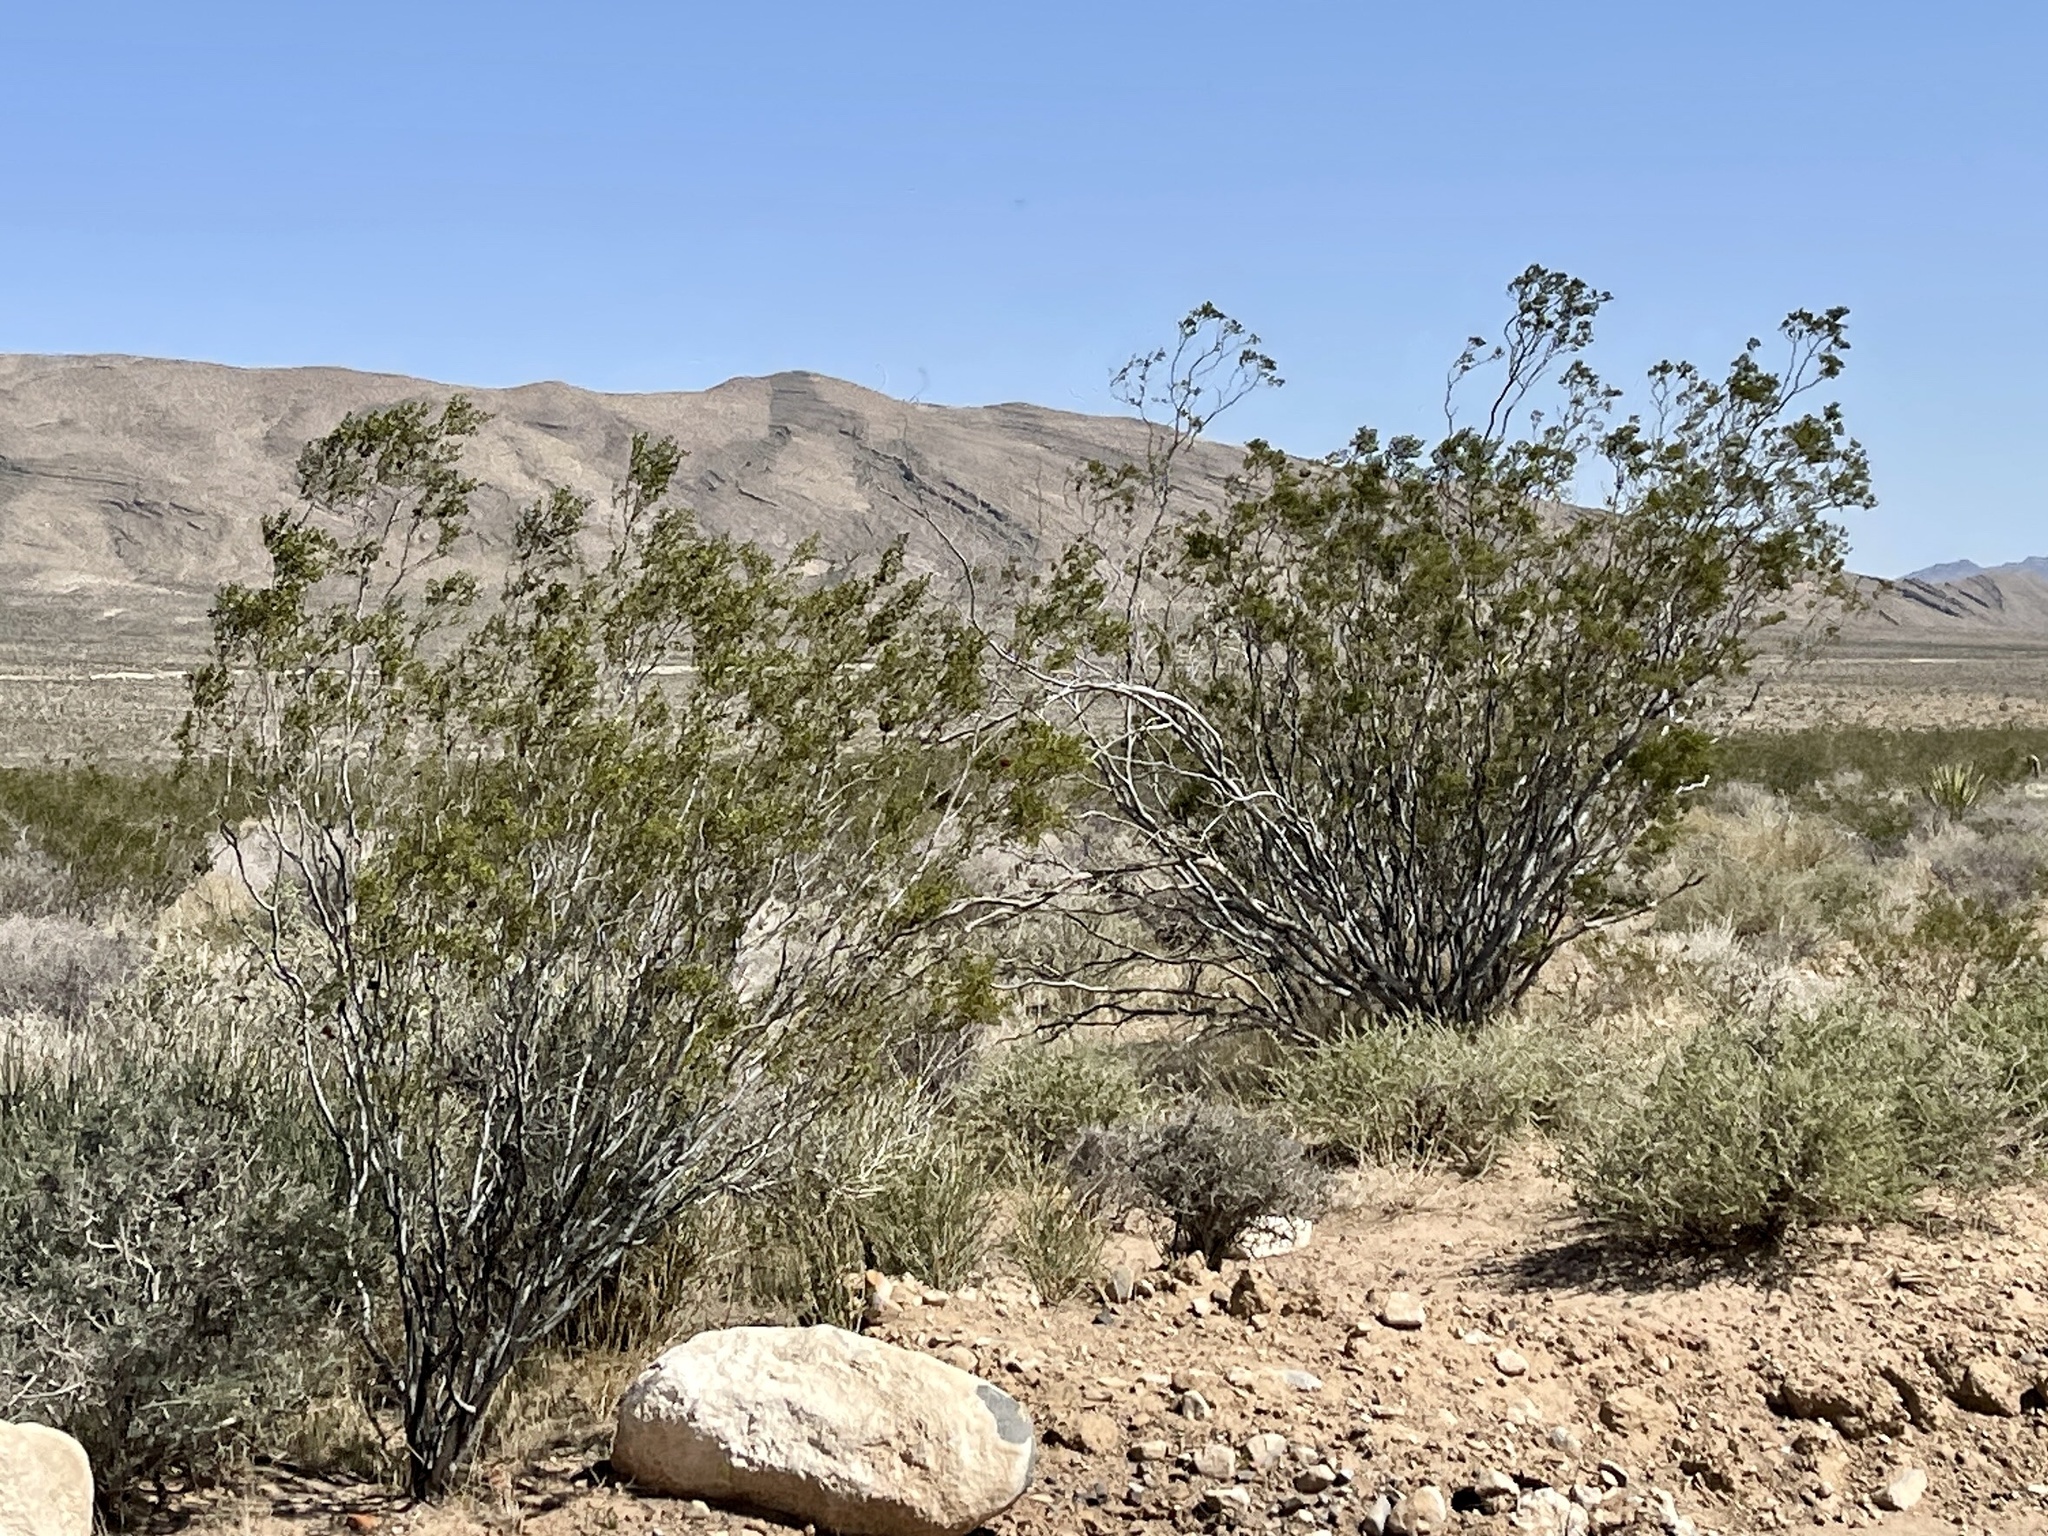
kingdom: Plantae
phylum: Tracheophyta
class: Magnoliopsida
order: Zygophyllales
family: Zygophyllaceae
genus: Larrea
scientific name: Larrea tridentata
